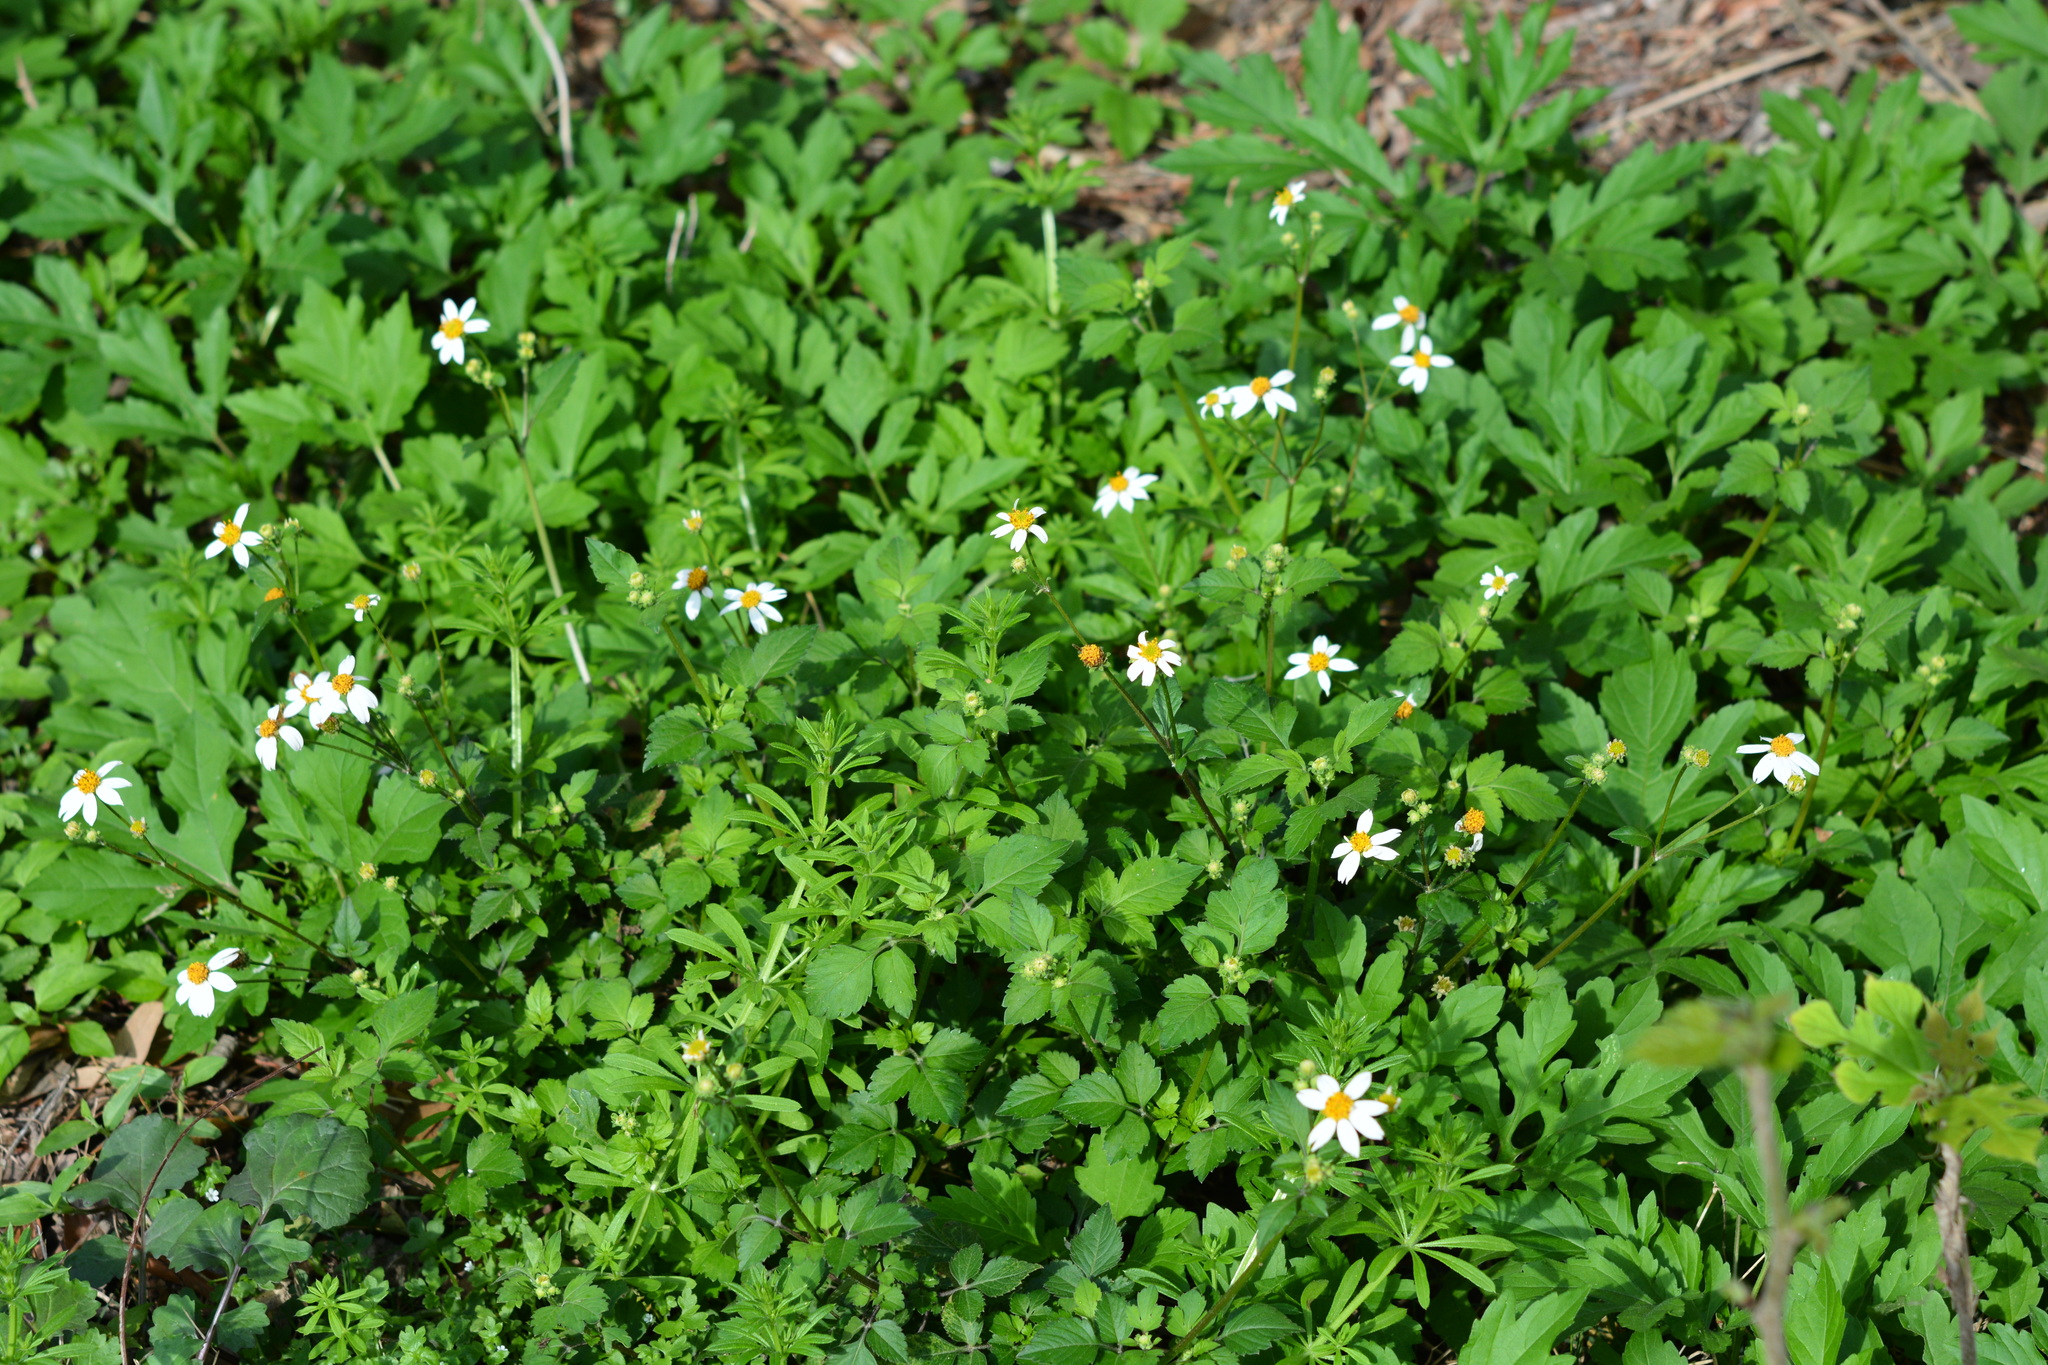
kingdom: Plantae
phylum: Tracheophyta
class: Magnoliopsida
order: Asterales
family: Asteraceae
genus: Bidens
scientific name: Bidens alba
